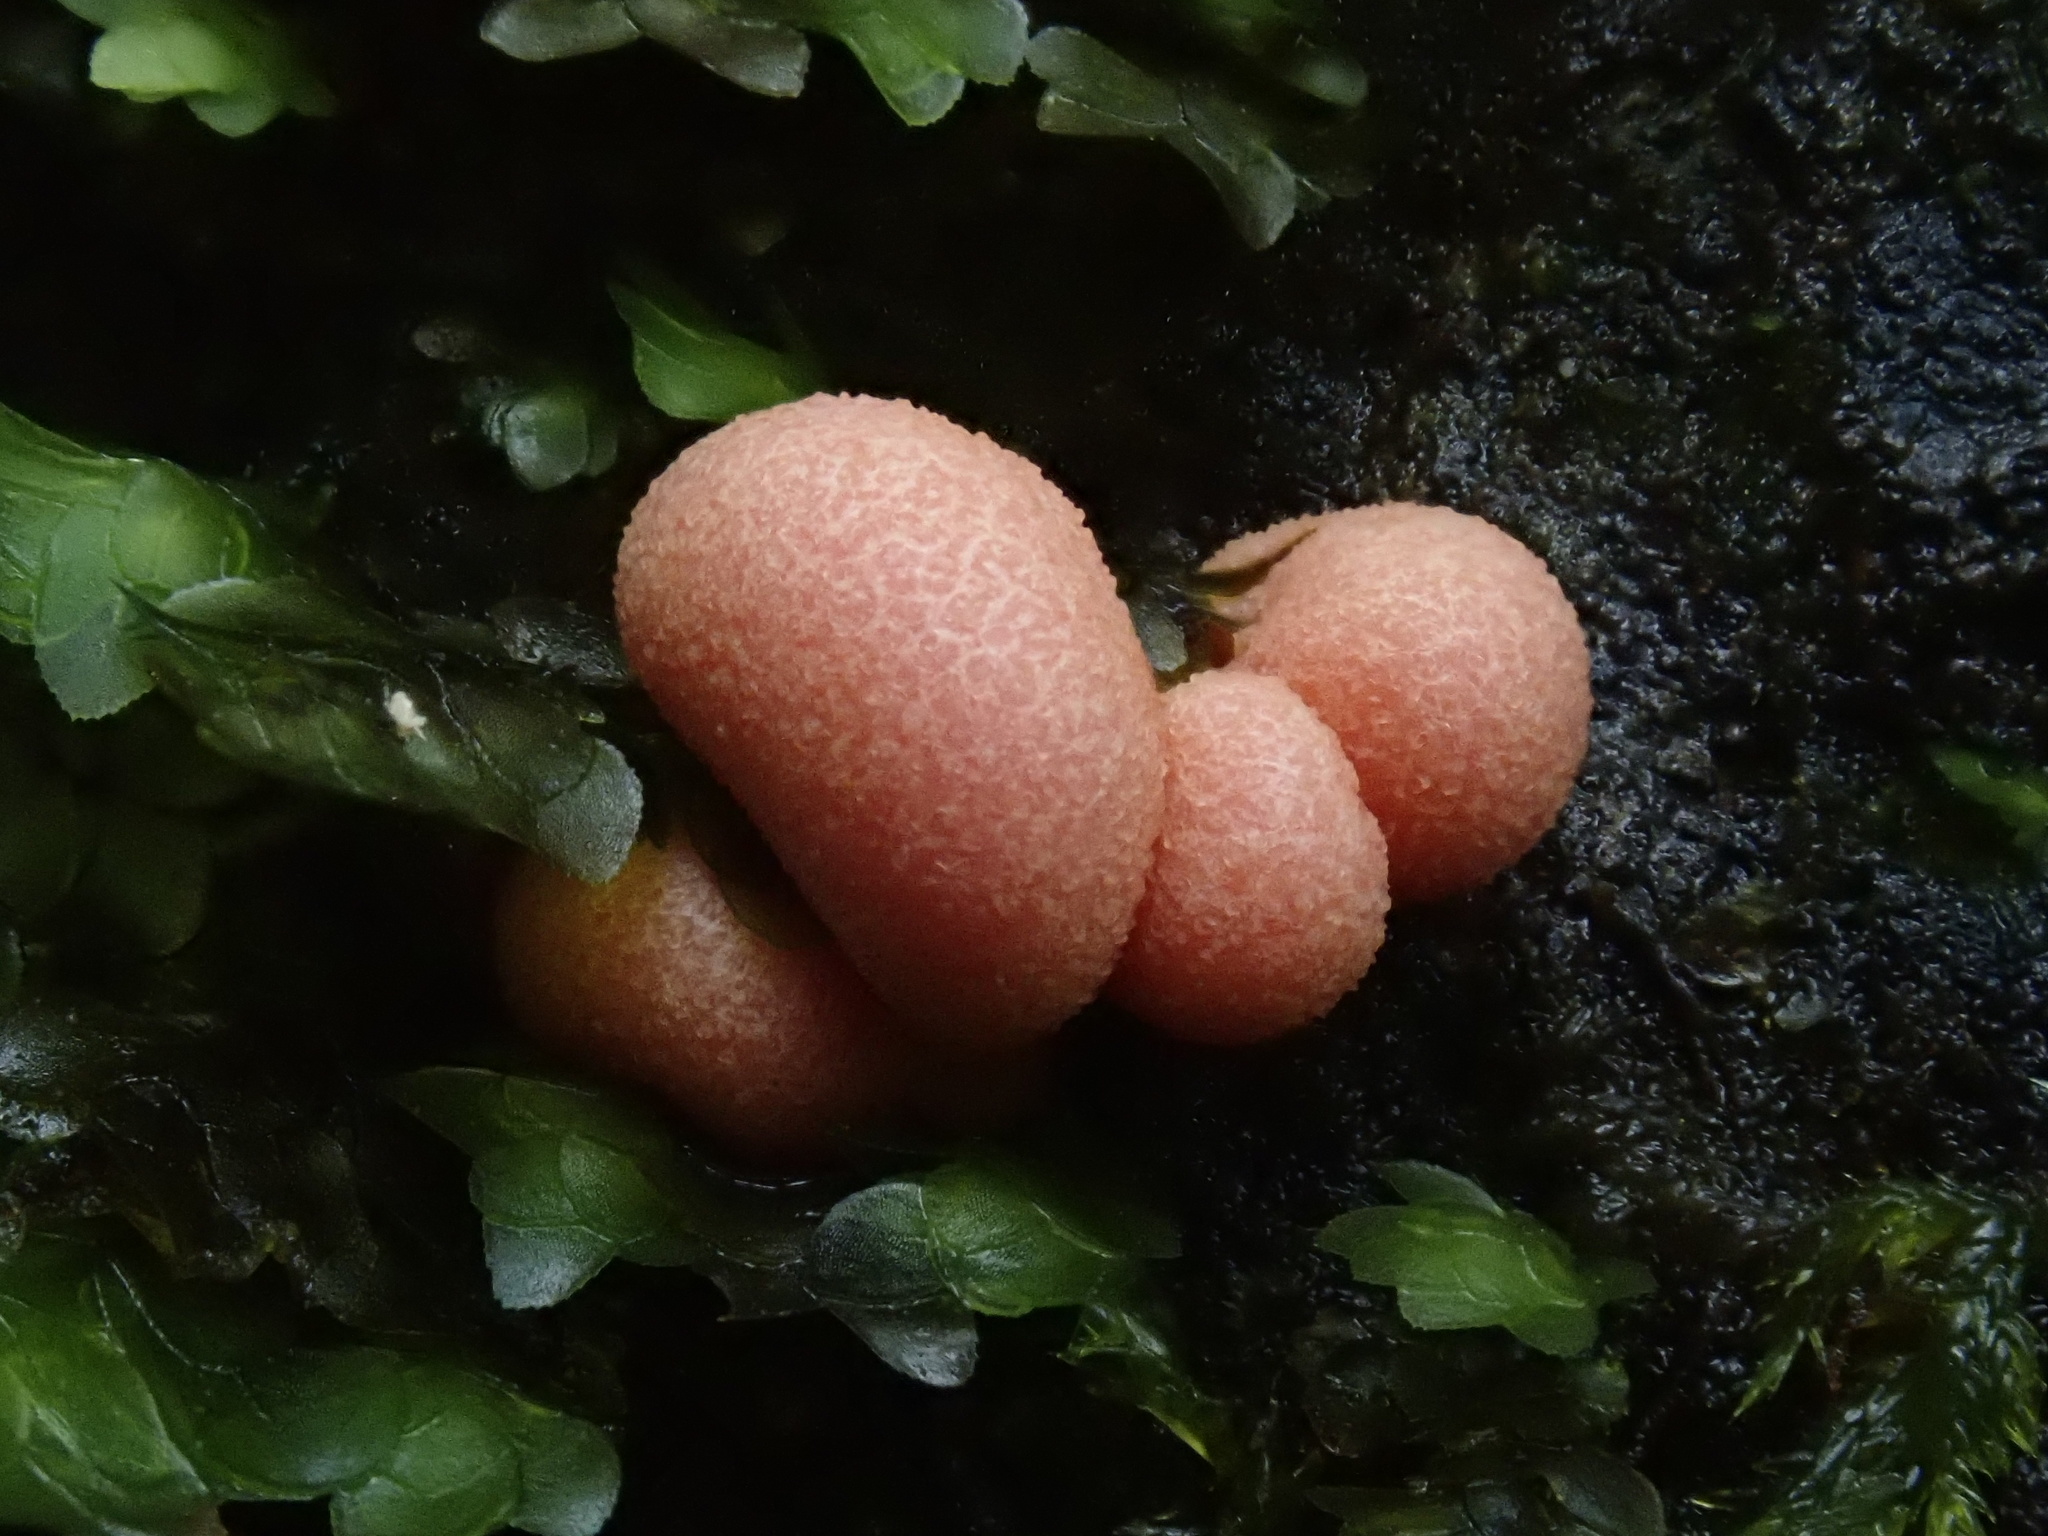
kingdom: Protozoa
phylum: Mycetozoa
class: Myxomycetes
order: Cribrariales
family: Tubiferaceae
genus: Lycogala
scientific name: Lycogala epidendrum
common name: Wolf's milk
